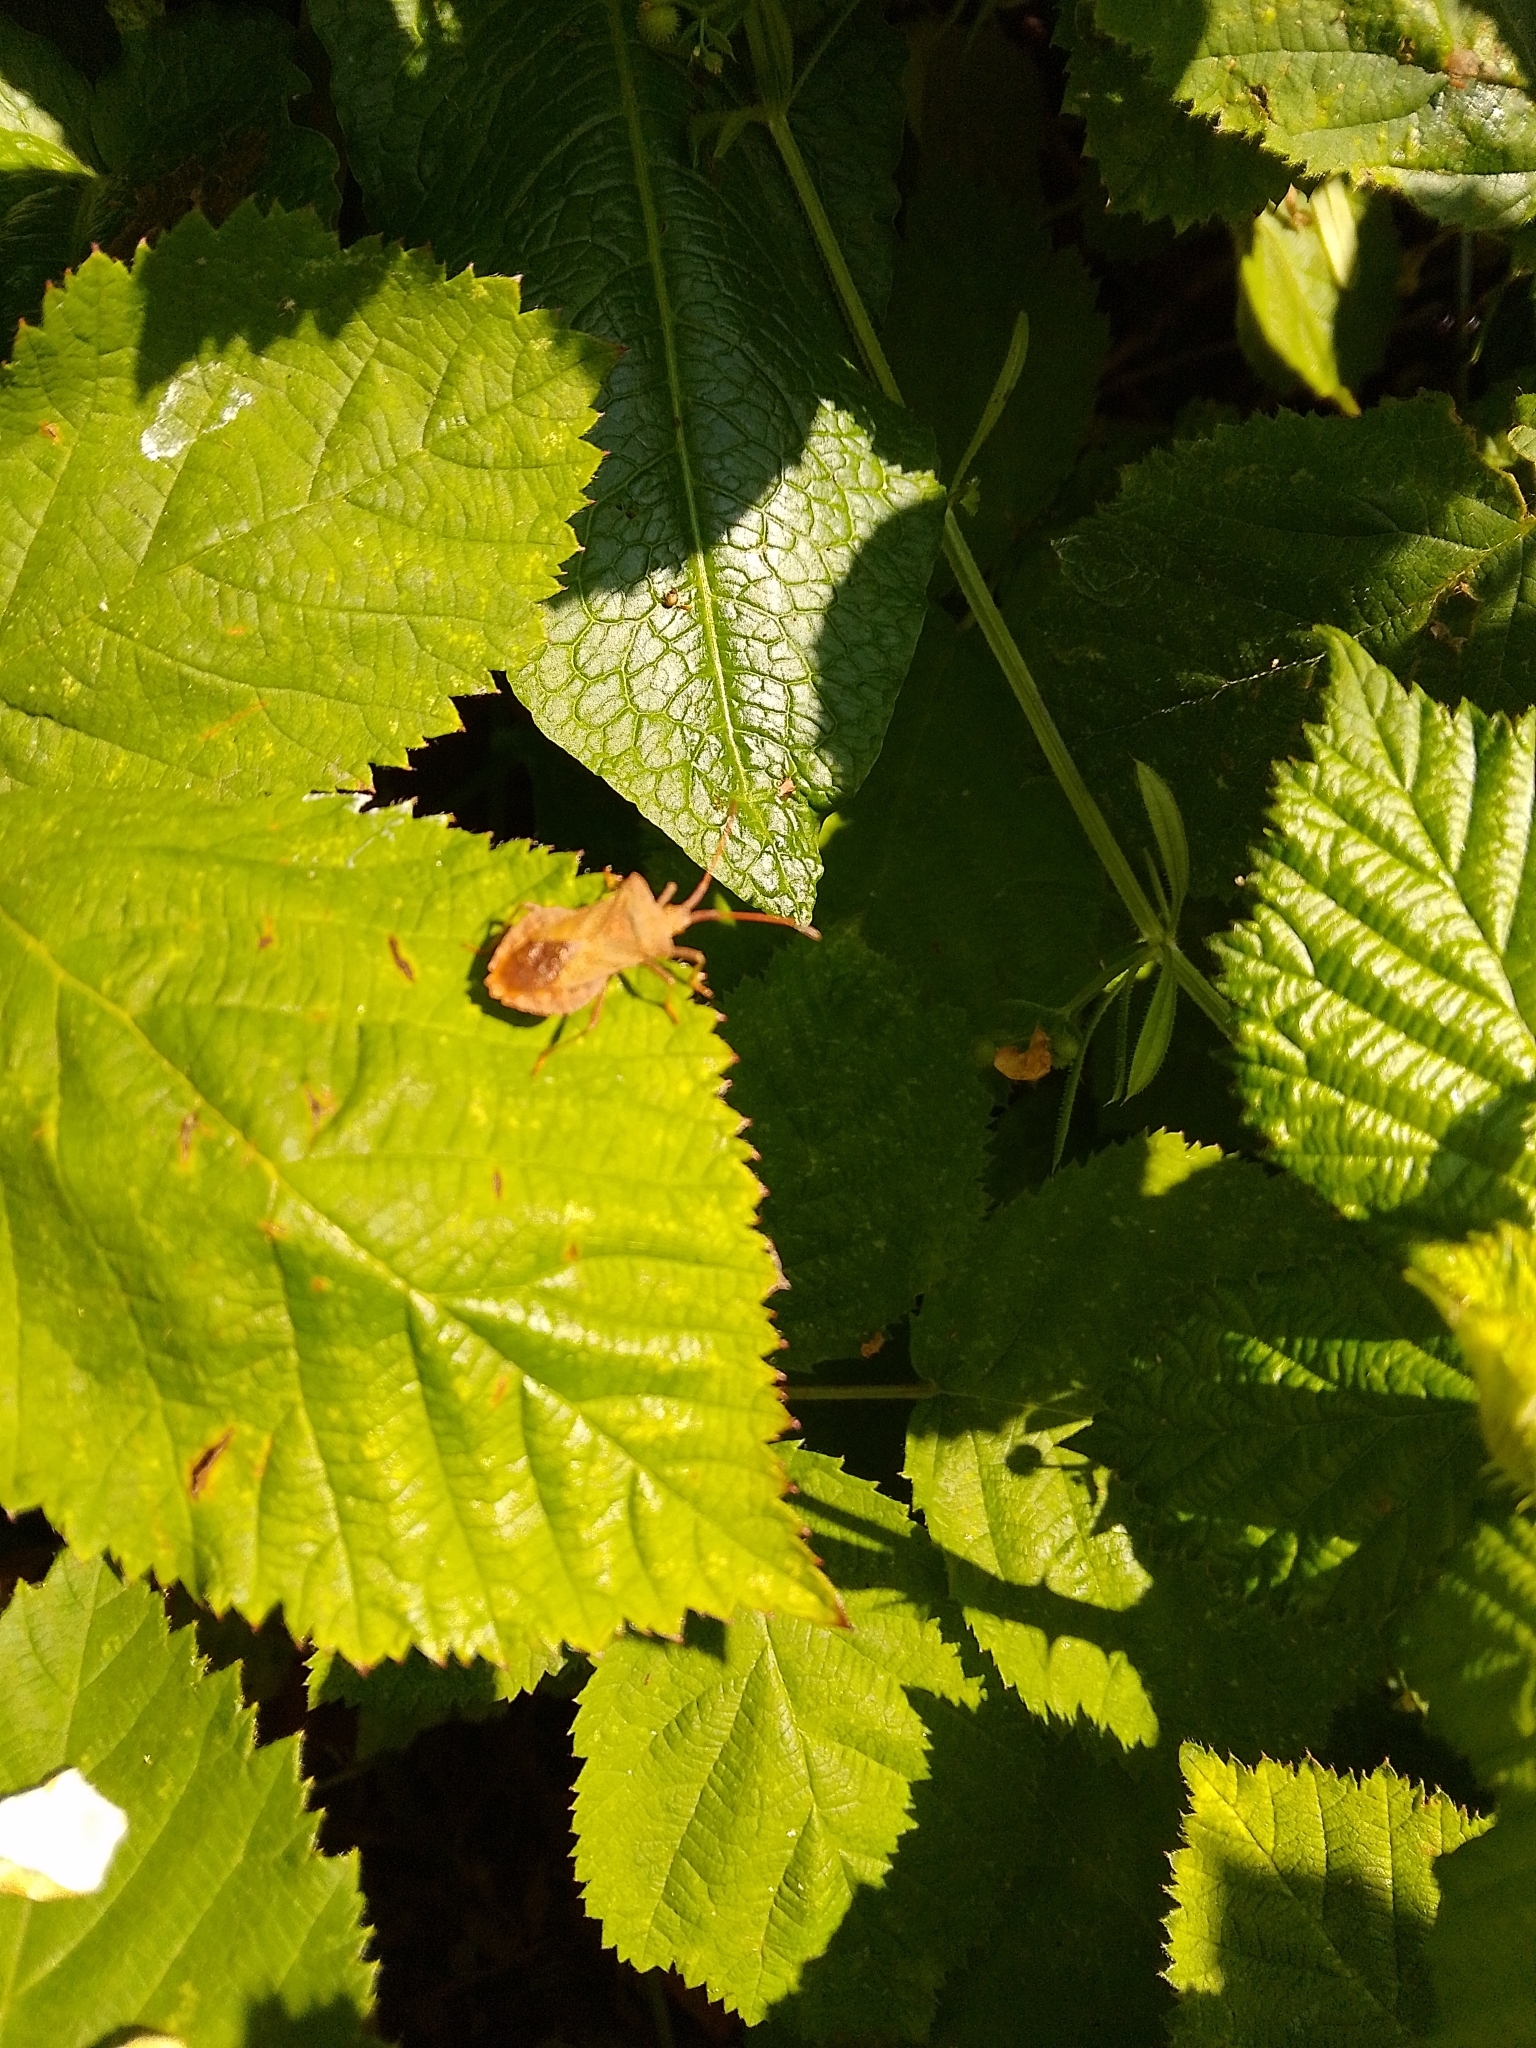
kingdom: Animalia
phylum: Arthropoda
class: Insecta
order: Hemiptera
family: Coreidae
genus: Coreus
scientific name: Coreus marginatus
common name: Dock bug
